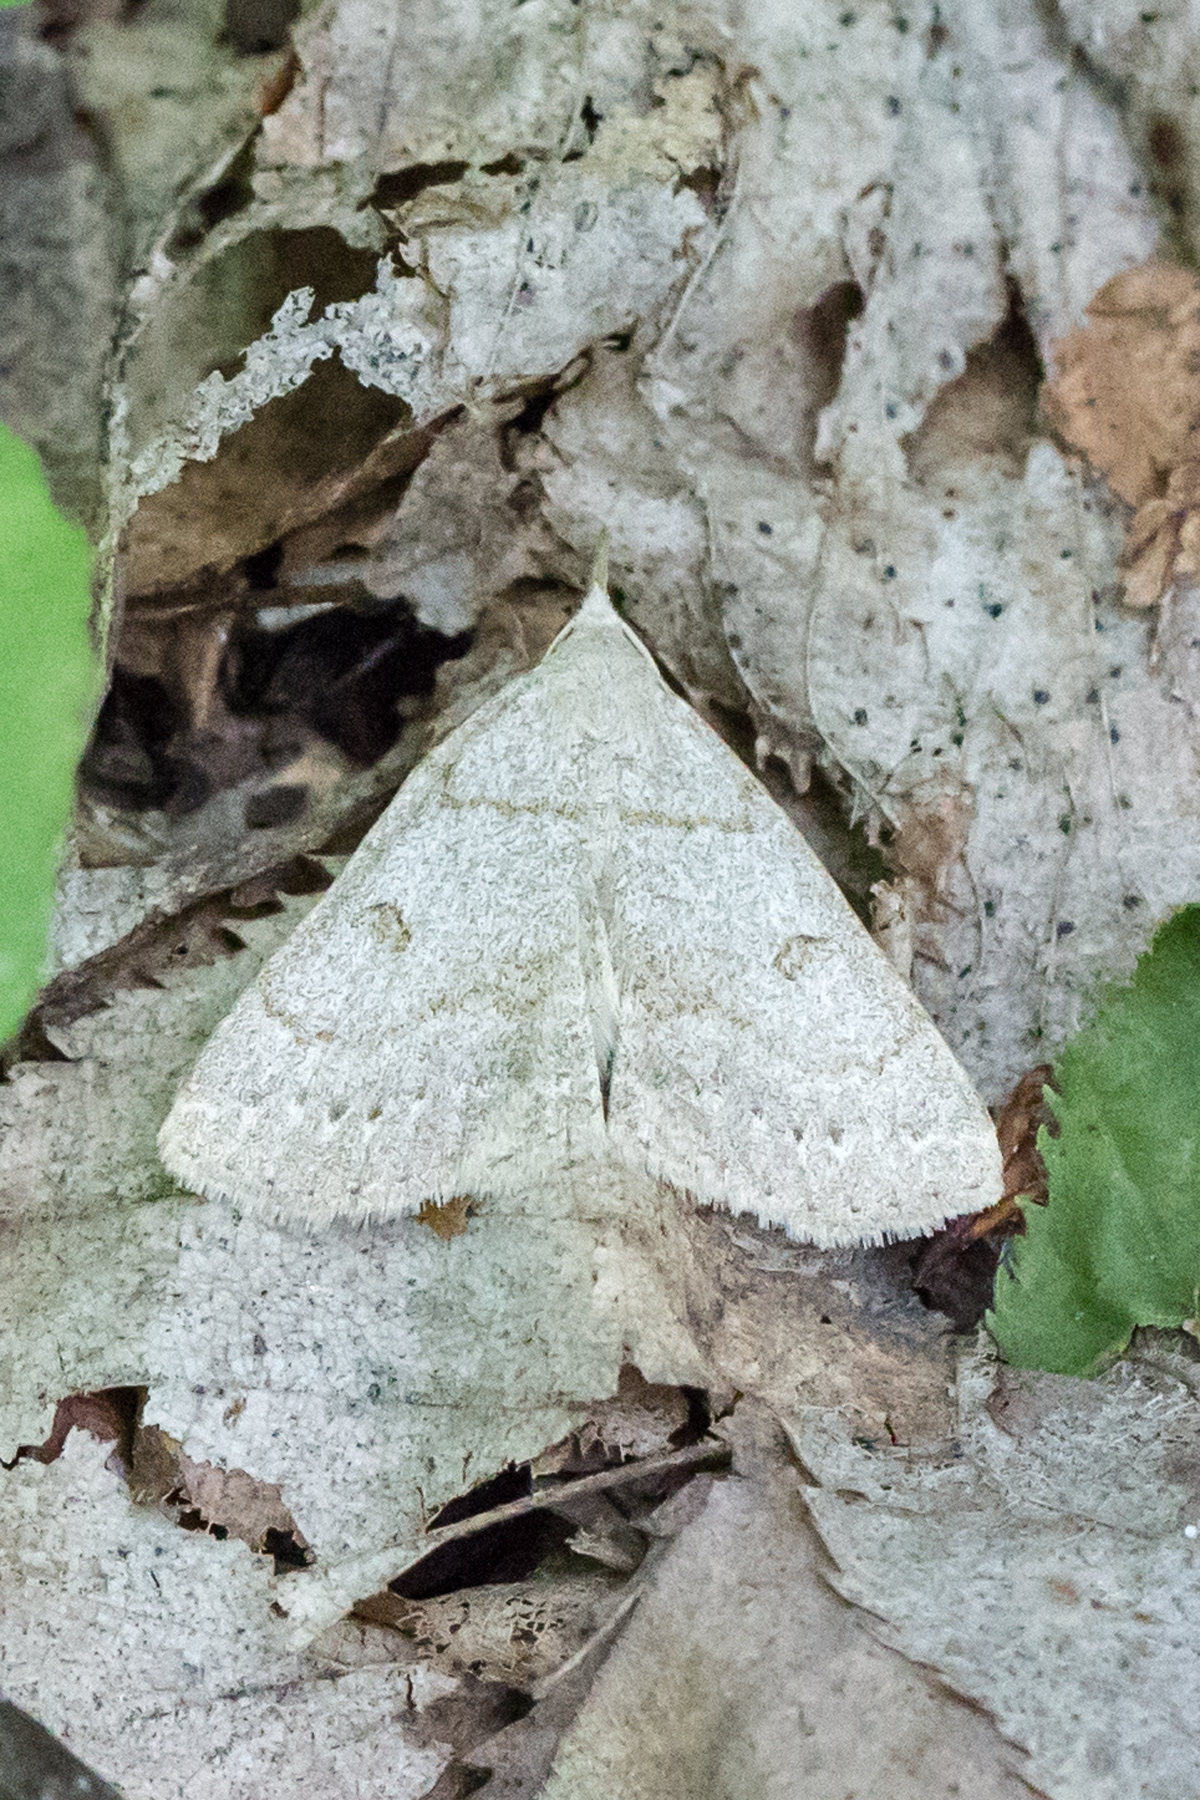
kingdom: Animalia
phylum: Arthropoda
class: Insecta
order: Lepidoptera
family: Erebidae
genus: Macrochilo
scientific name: Macrochilo morbidalis
